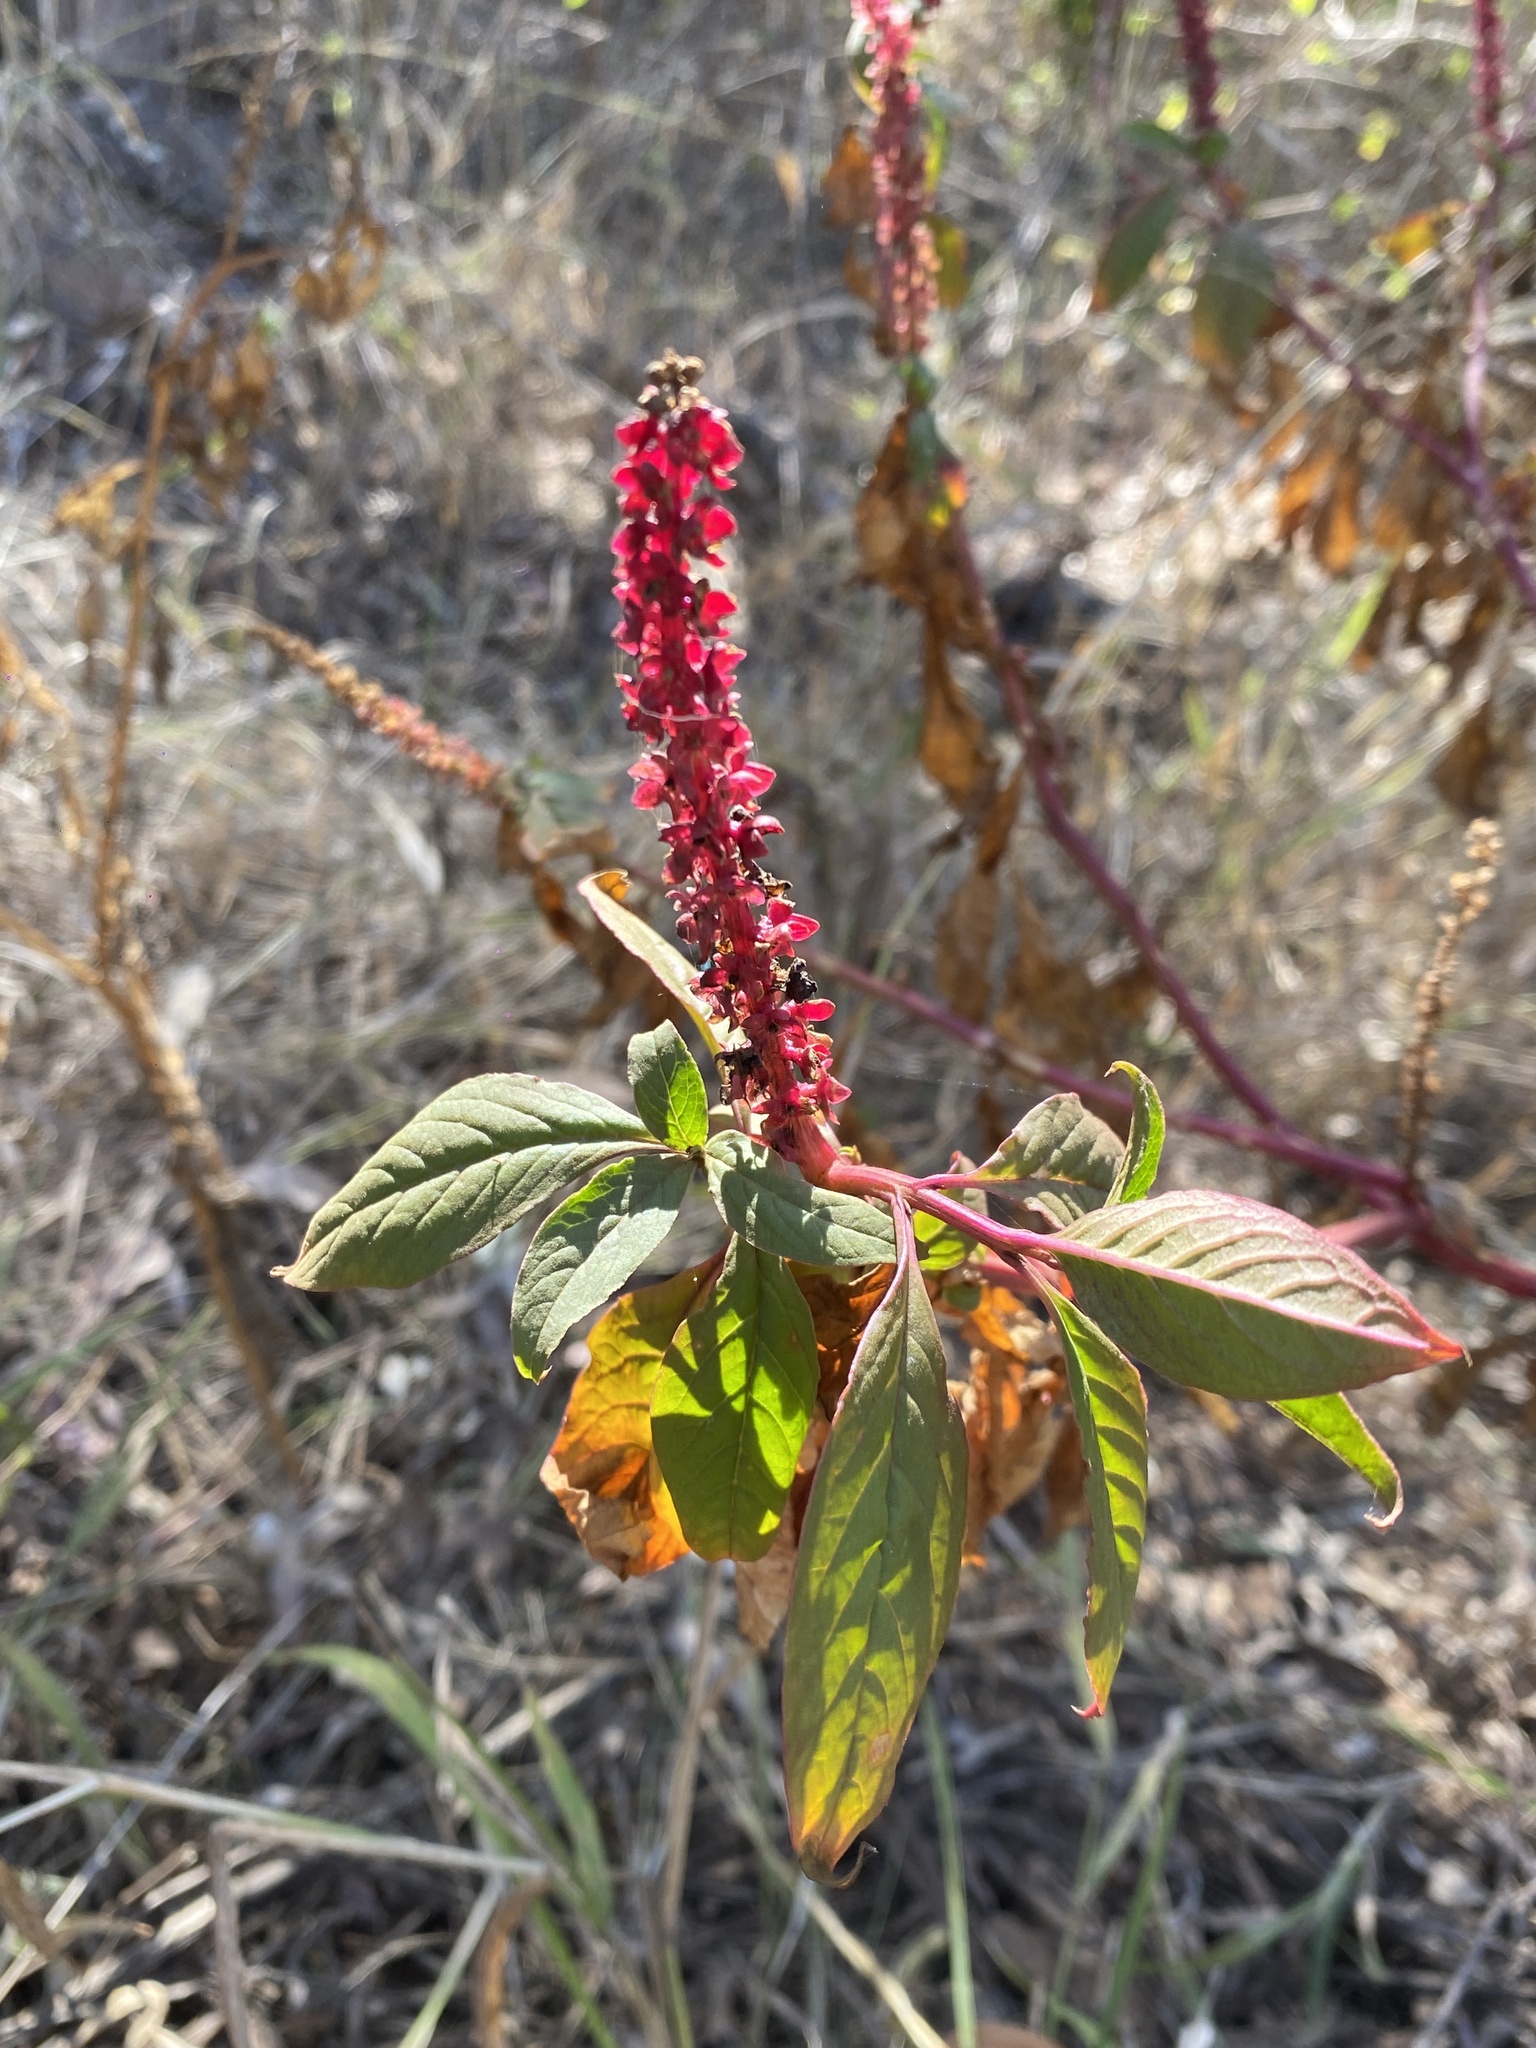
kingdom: Plantae
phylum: Tracheophyta
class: Magnoliopsida
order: Caryophyllales
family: Phytolaccaceae
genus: Phytolacca
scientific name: Phytolacca icosandra
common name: Button pokeweed
